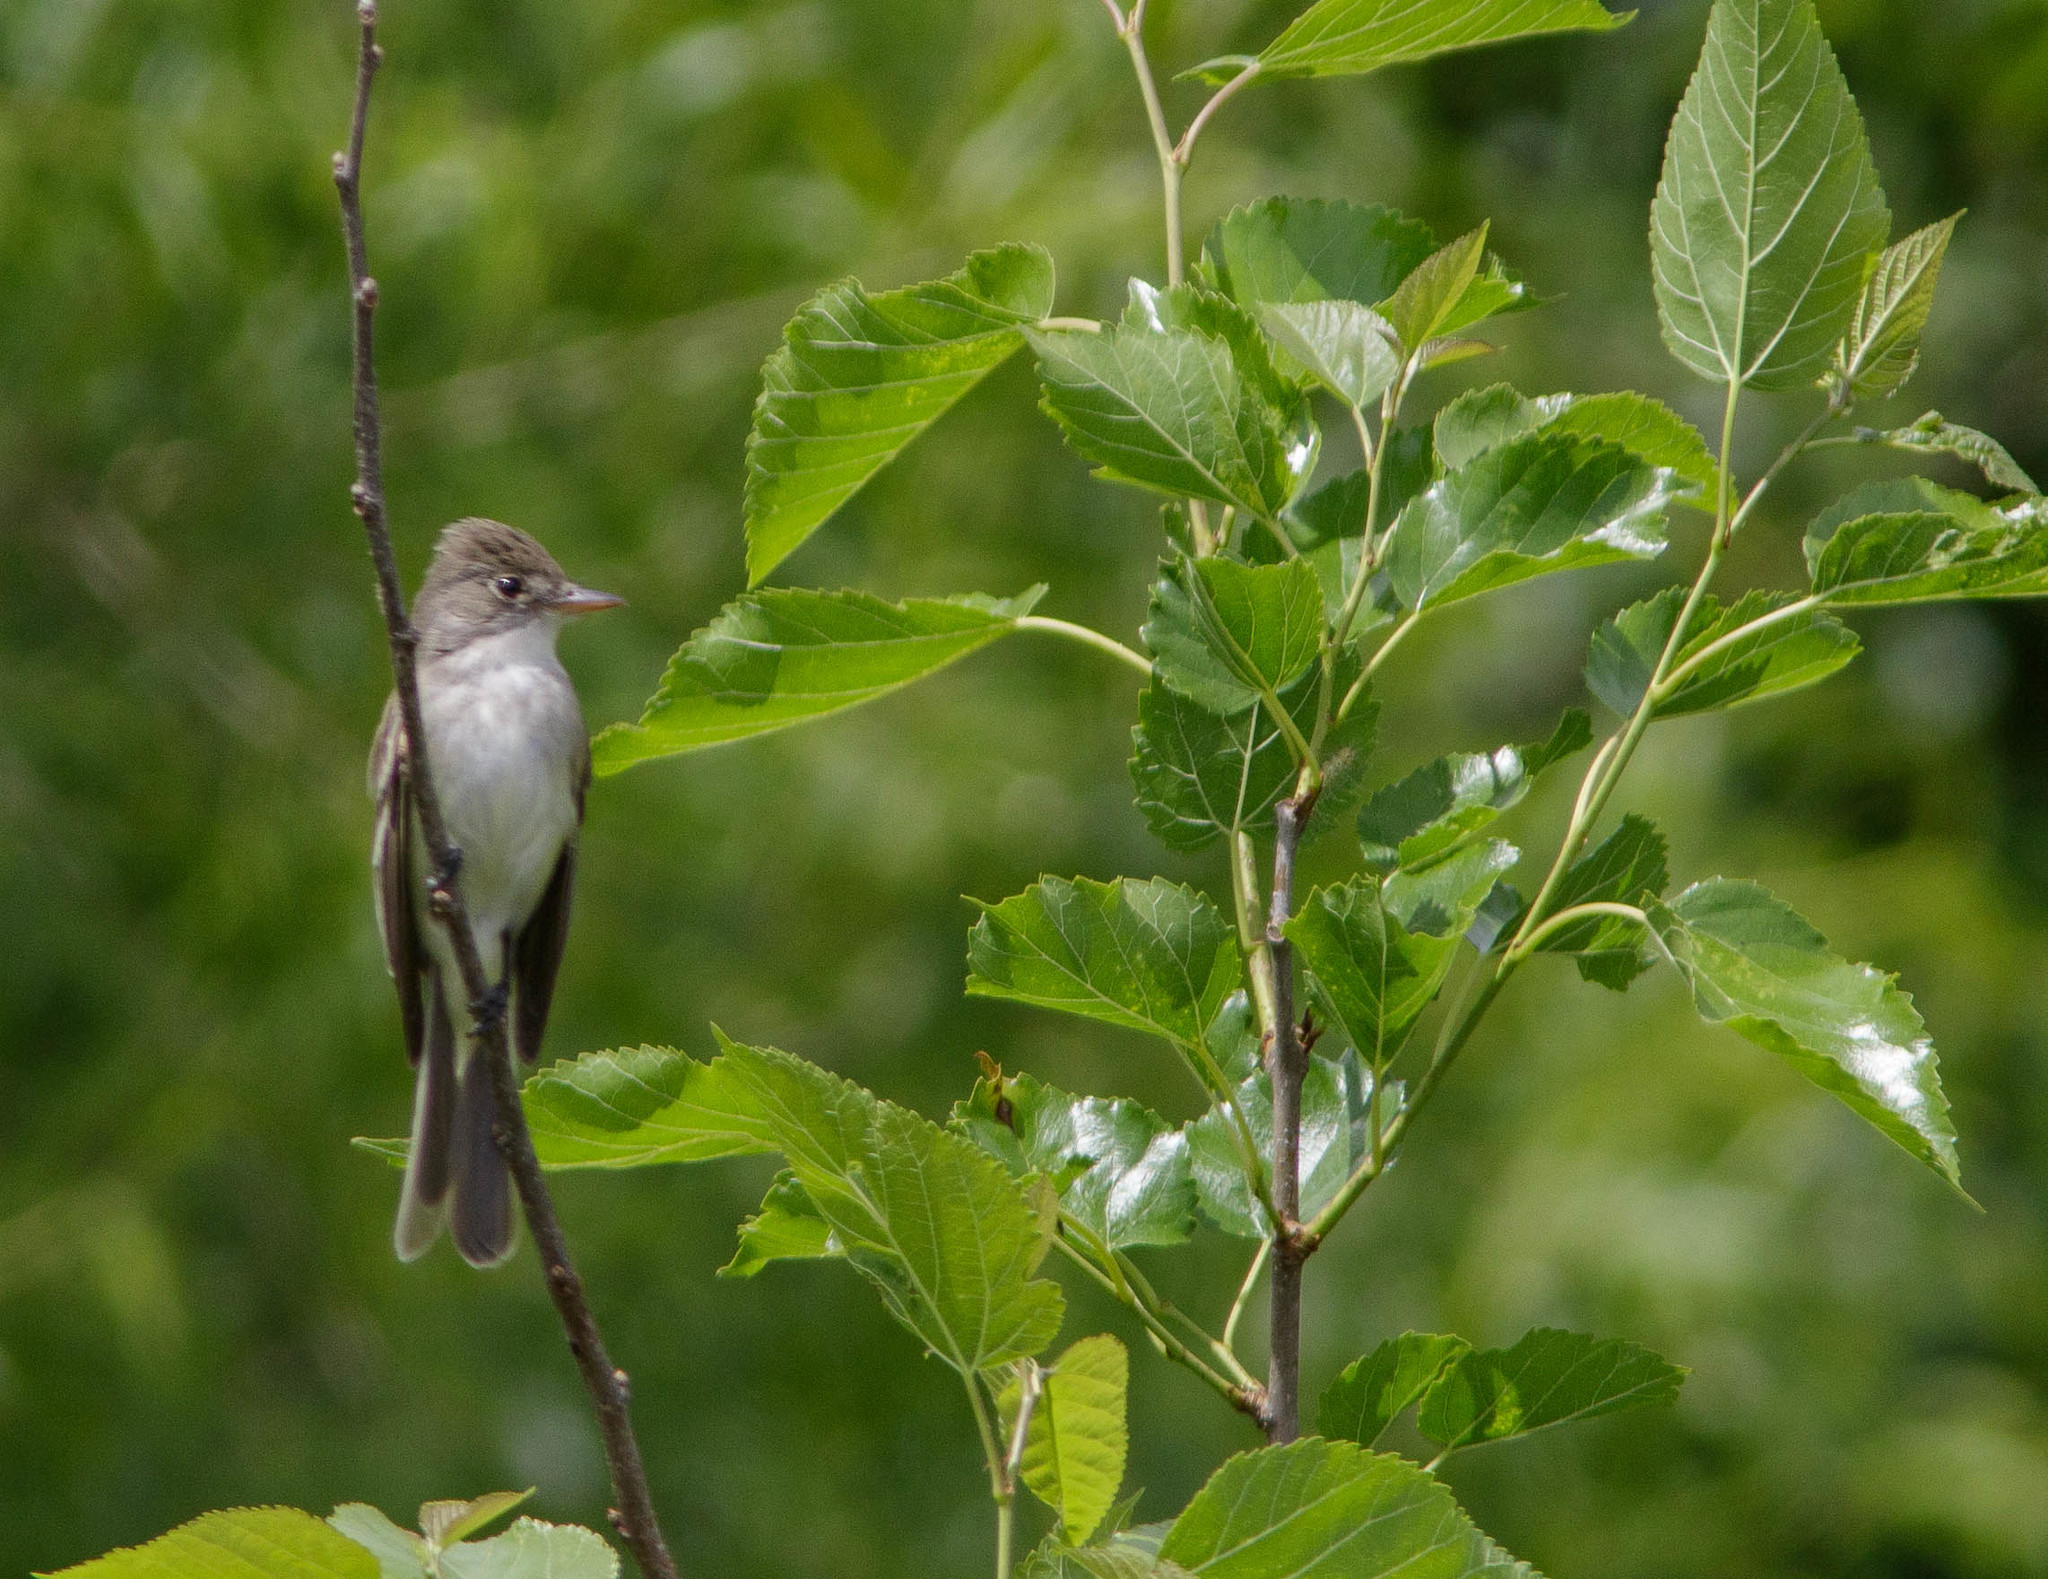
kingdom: Animalia
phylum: Chordata
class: Aves
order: Passeriformes
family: Tyrannidae
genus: Empidonax
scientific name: Empidonax traillii
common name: Willow flycatcher
